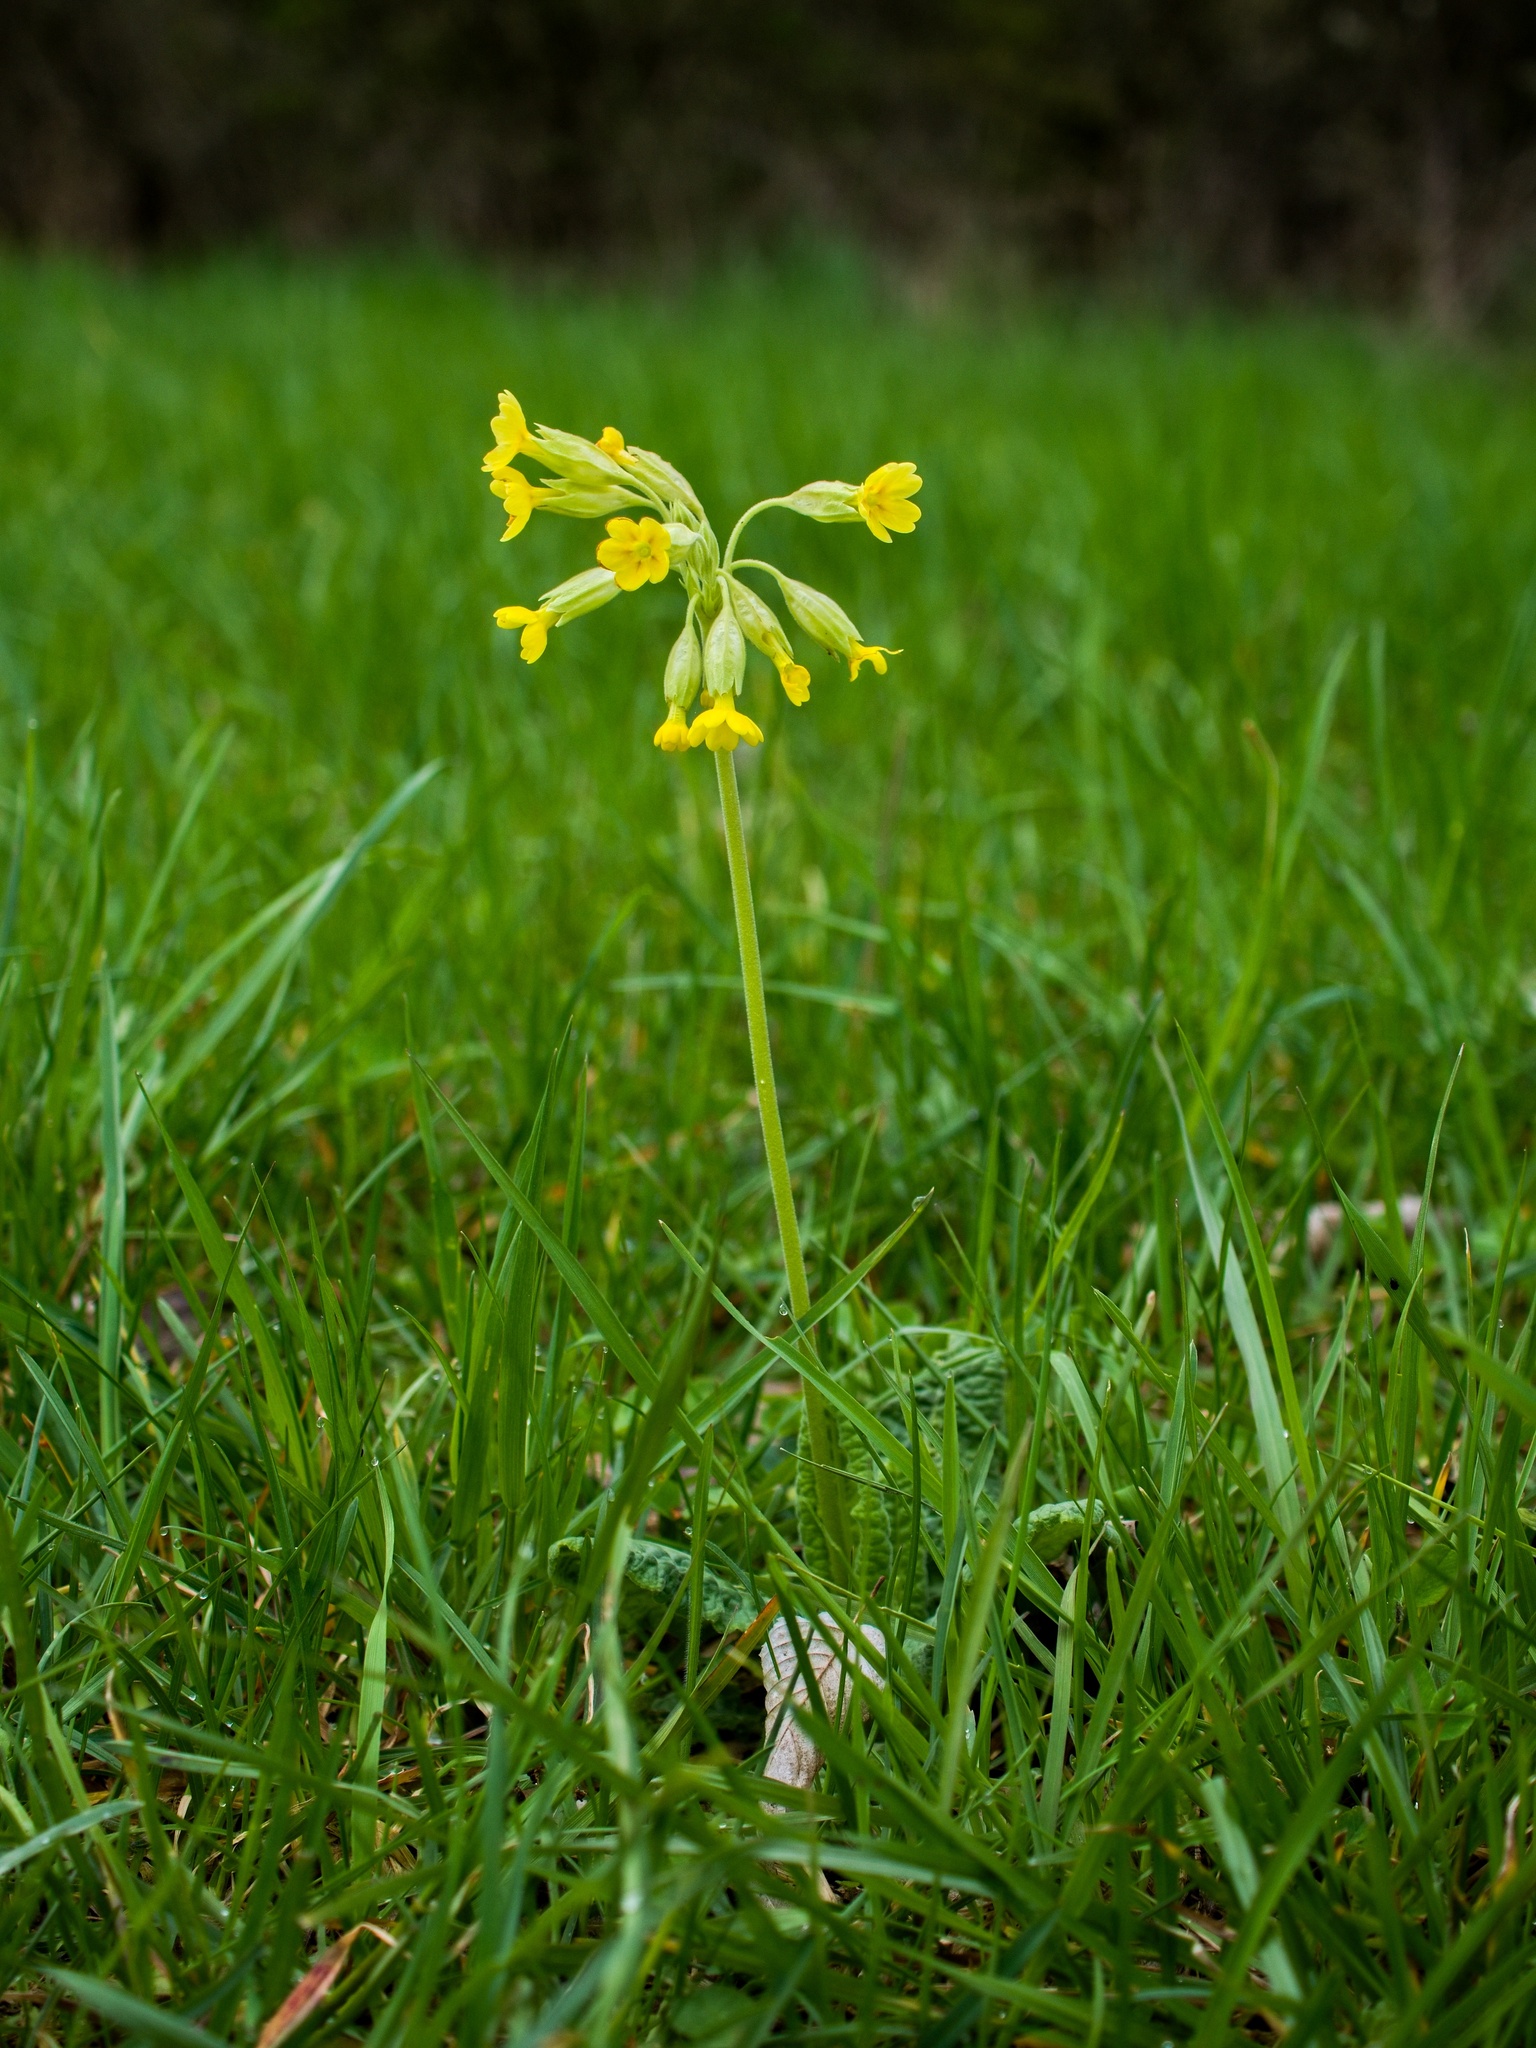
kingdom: Plantae
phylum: Tracheophyta
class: Magnoliopsida
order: Ericales
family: Primulaceae
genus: Primula
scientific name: Primula veris
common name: Cowslip
